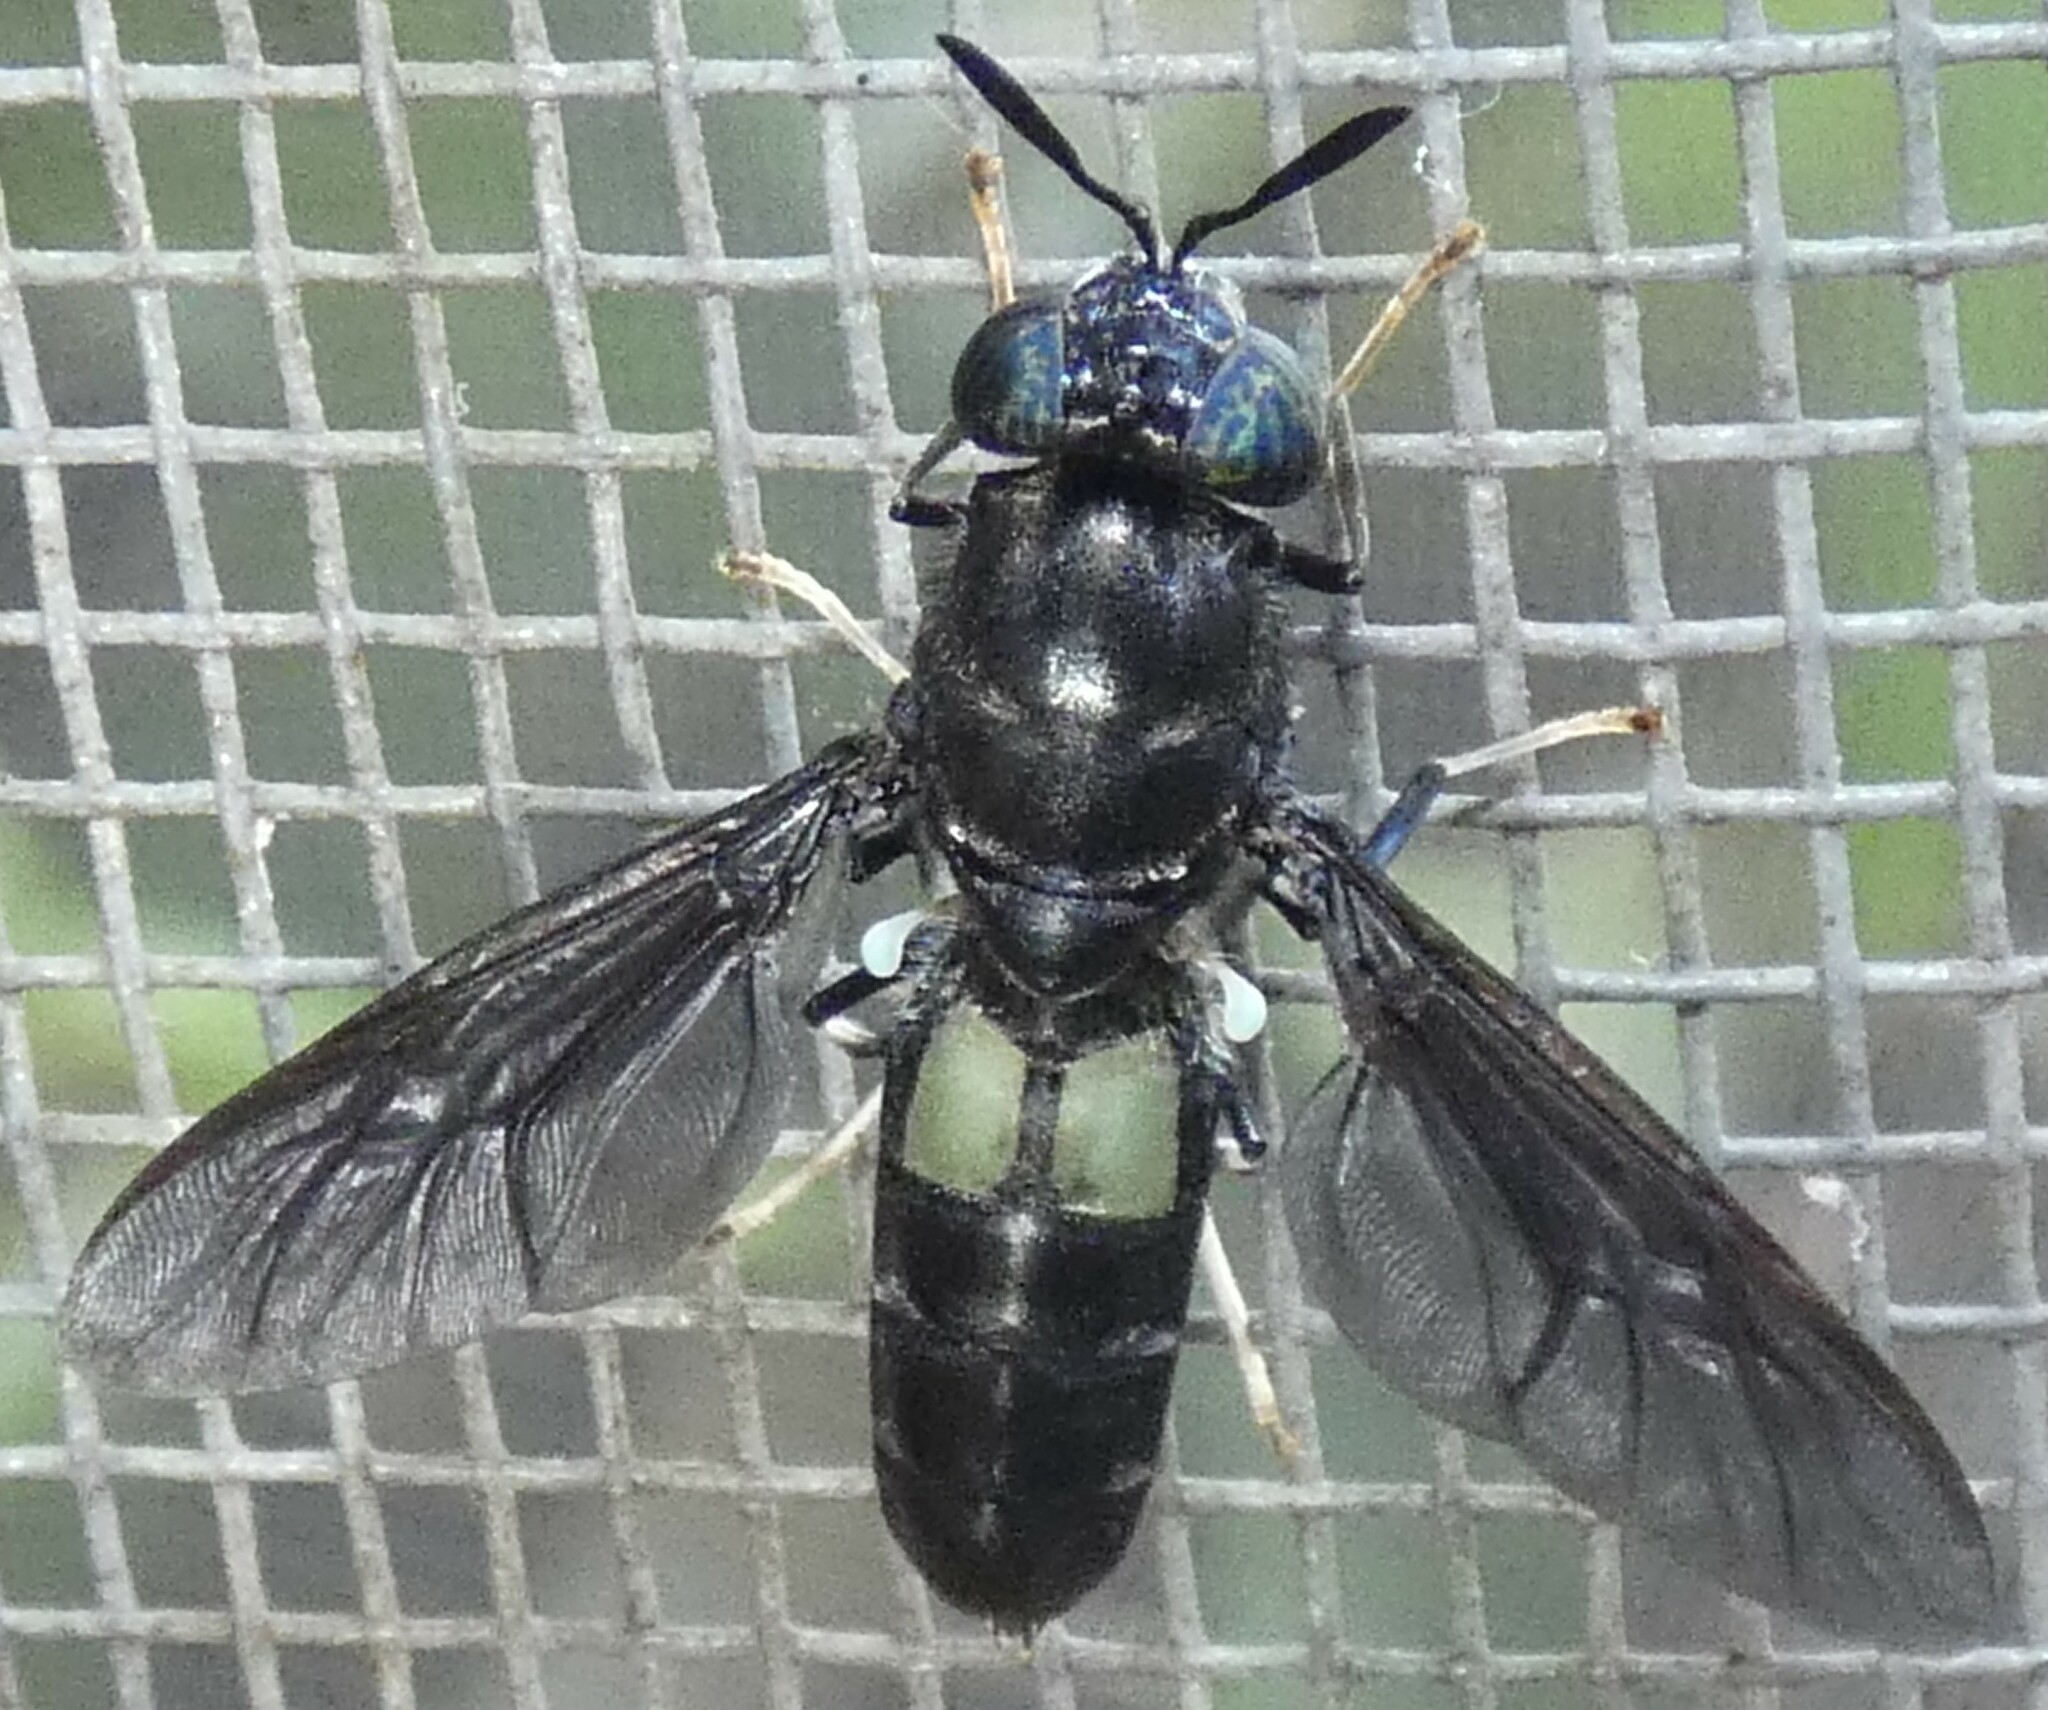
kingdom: Animalia
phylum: Arthropoda
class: Insecta
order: Diptera
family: Stratiomyidae
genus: Hermetia
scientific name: Hermetia illucens
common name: Black soldier fly
